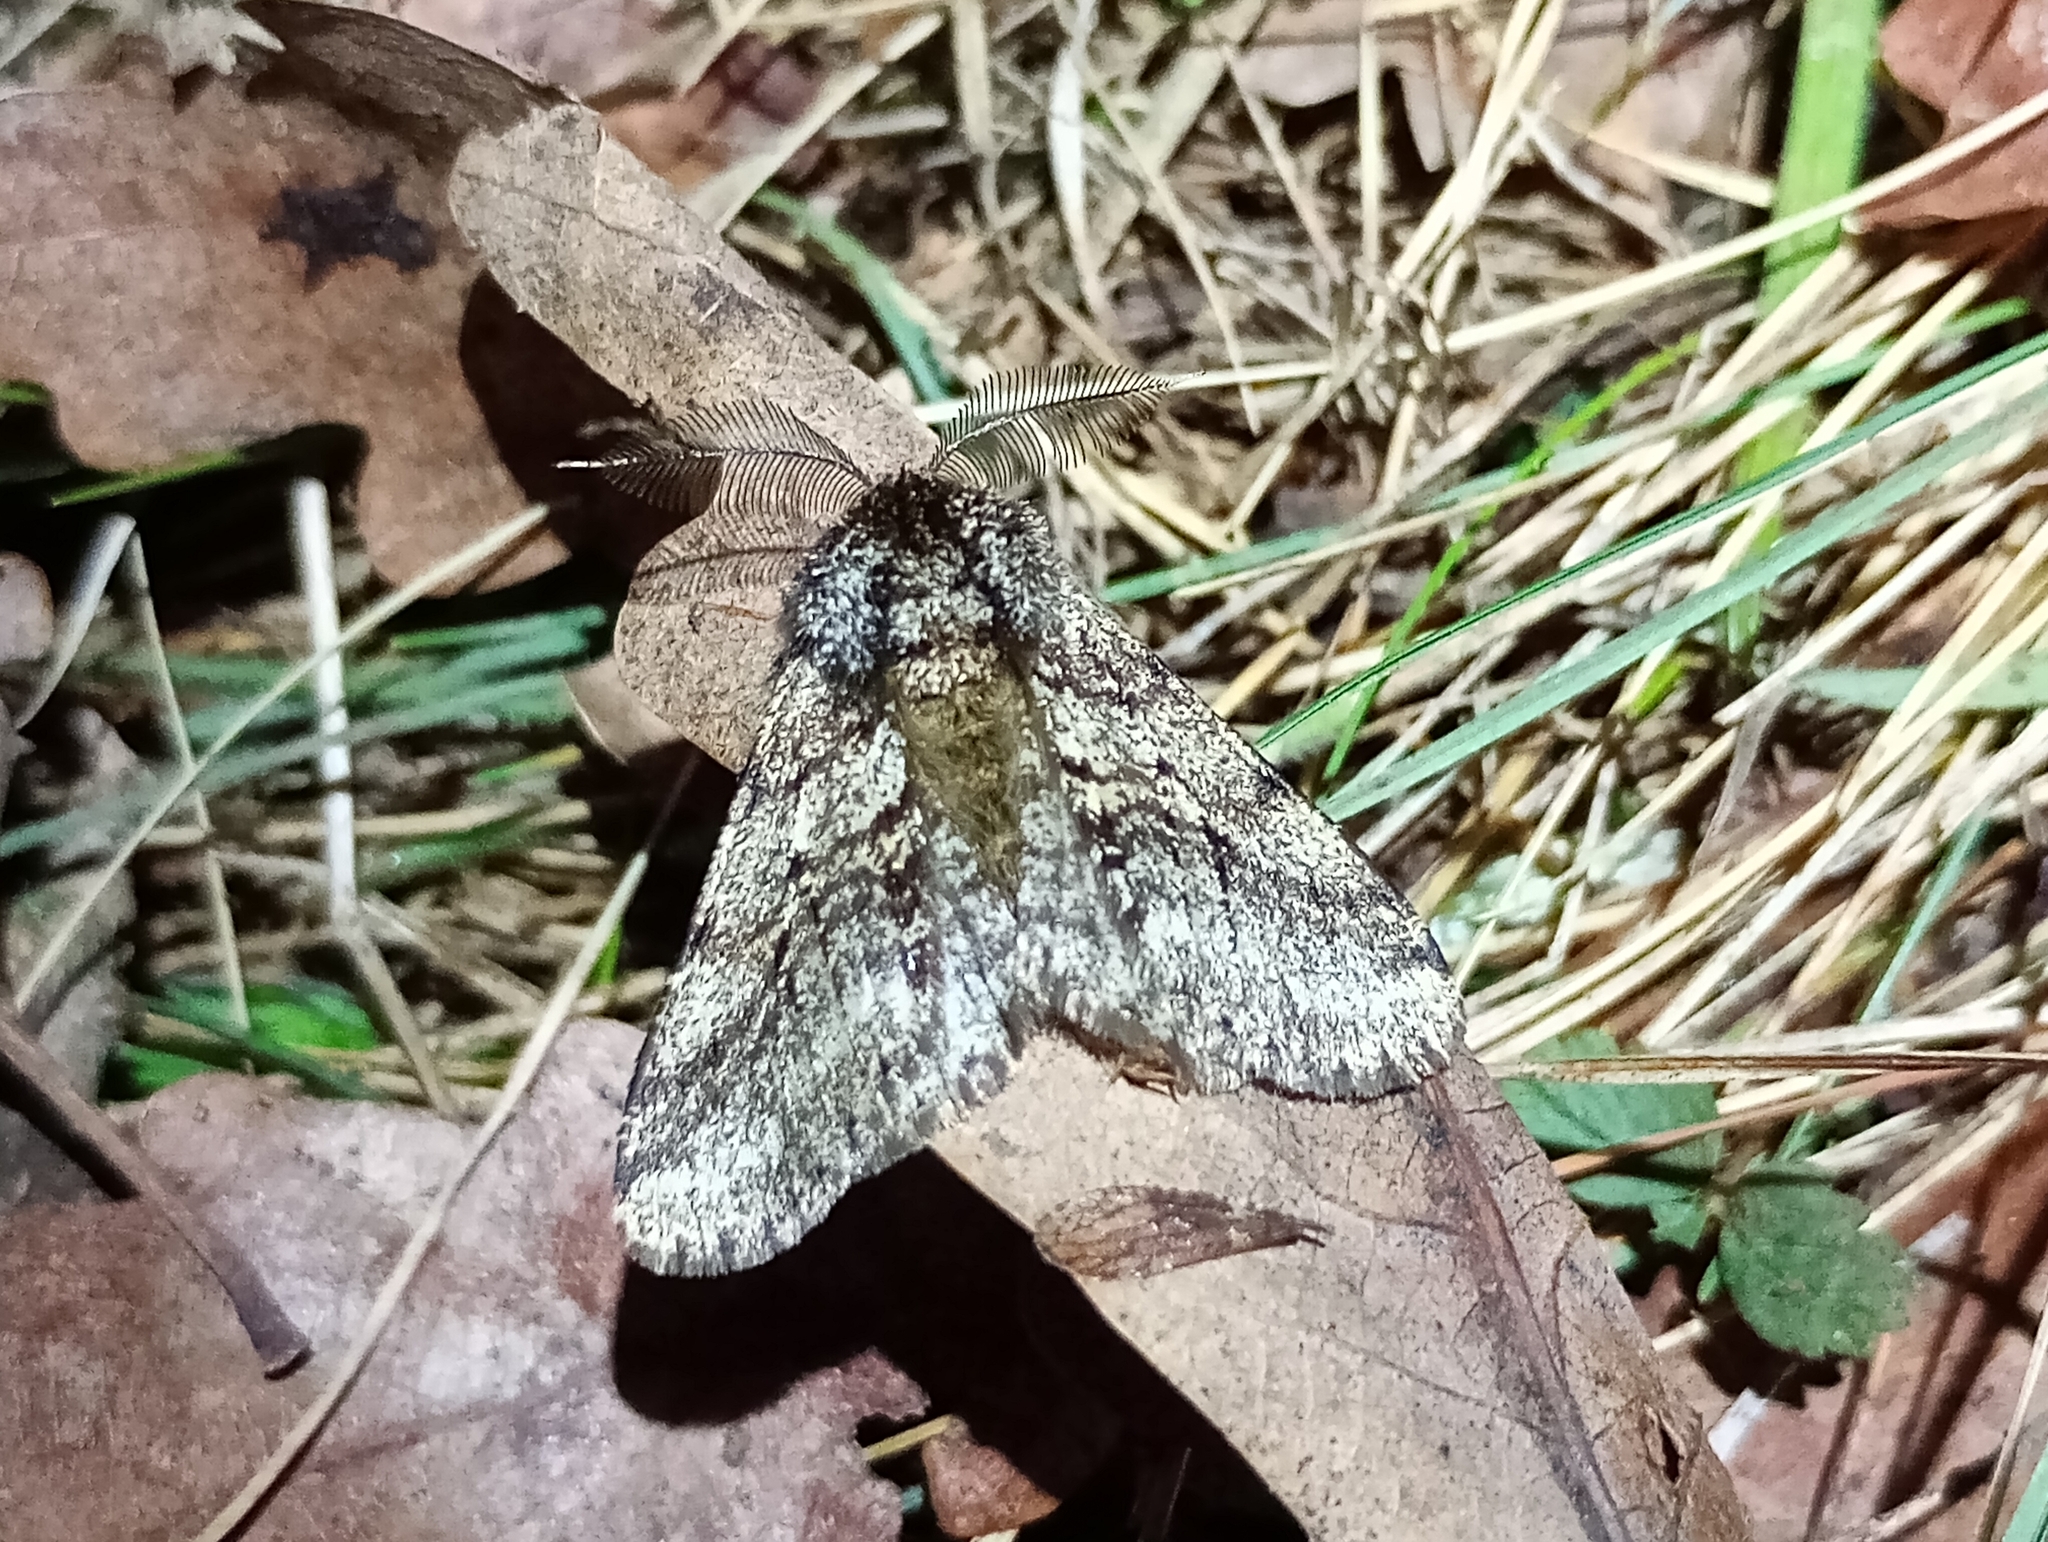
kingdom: Animalia
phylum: Arthropoda
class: Insecta
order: Lepidoptera
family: Geometridae
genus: Lycia
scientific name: Lycia hirtaria
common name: Brindled beauty
